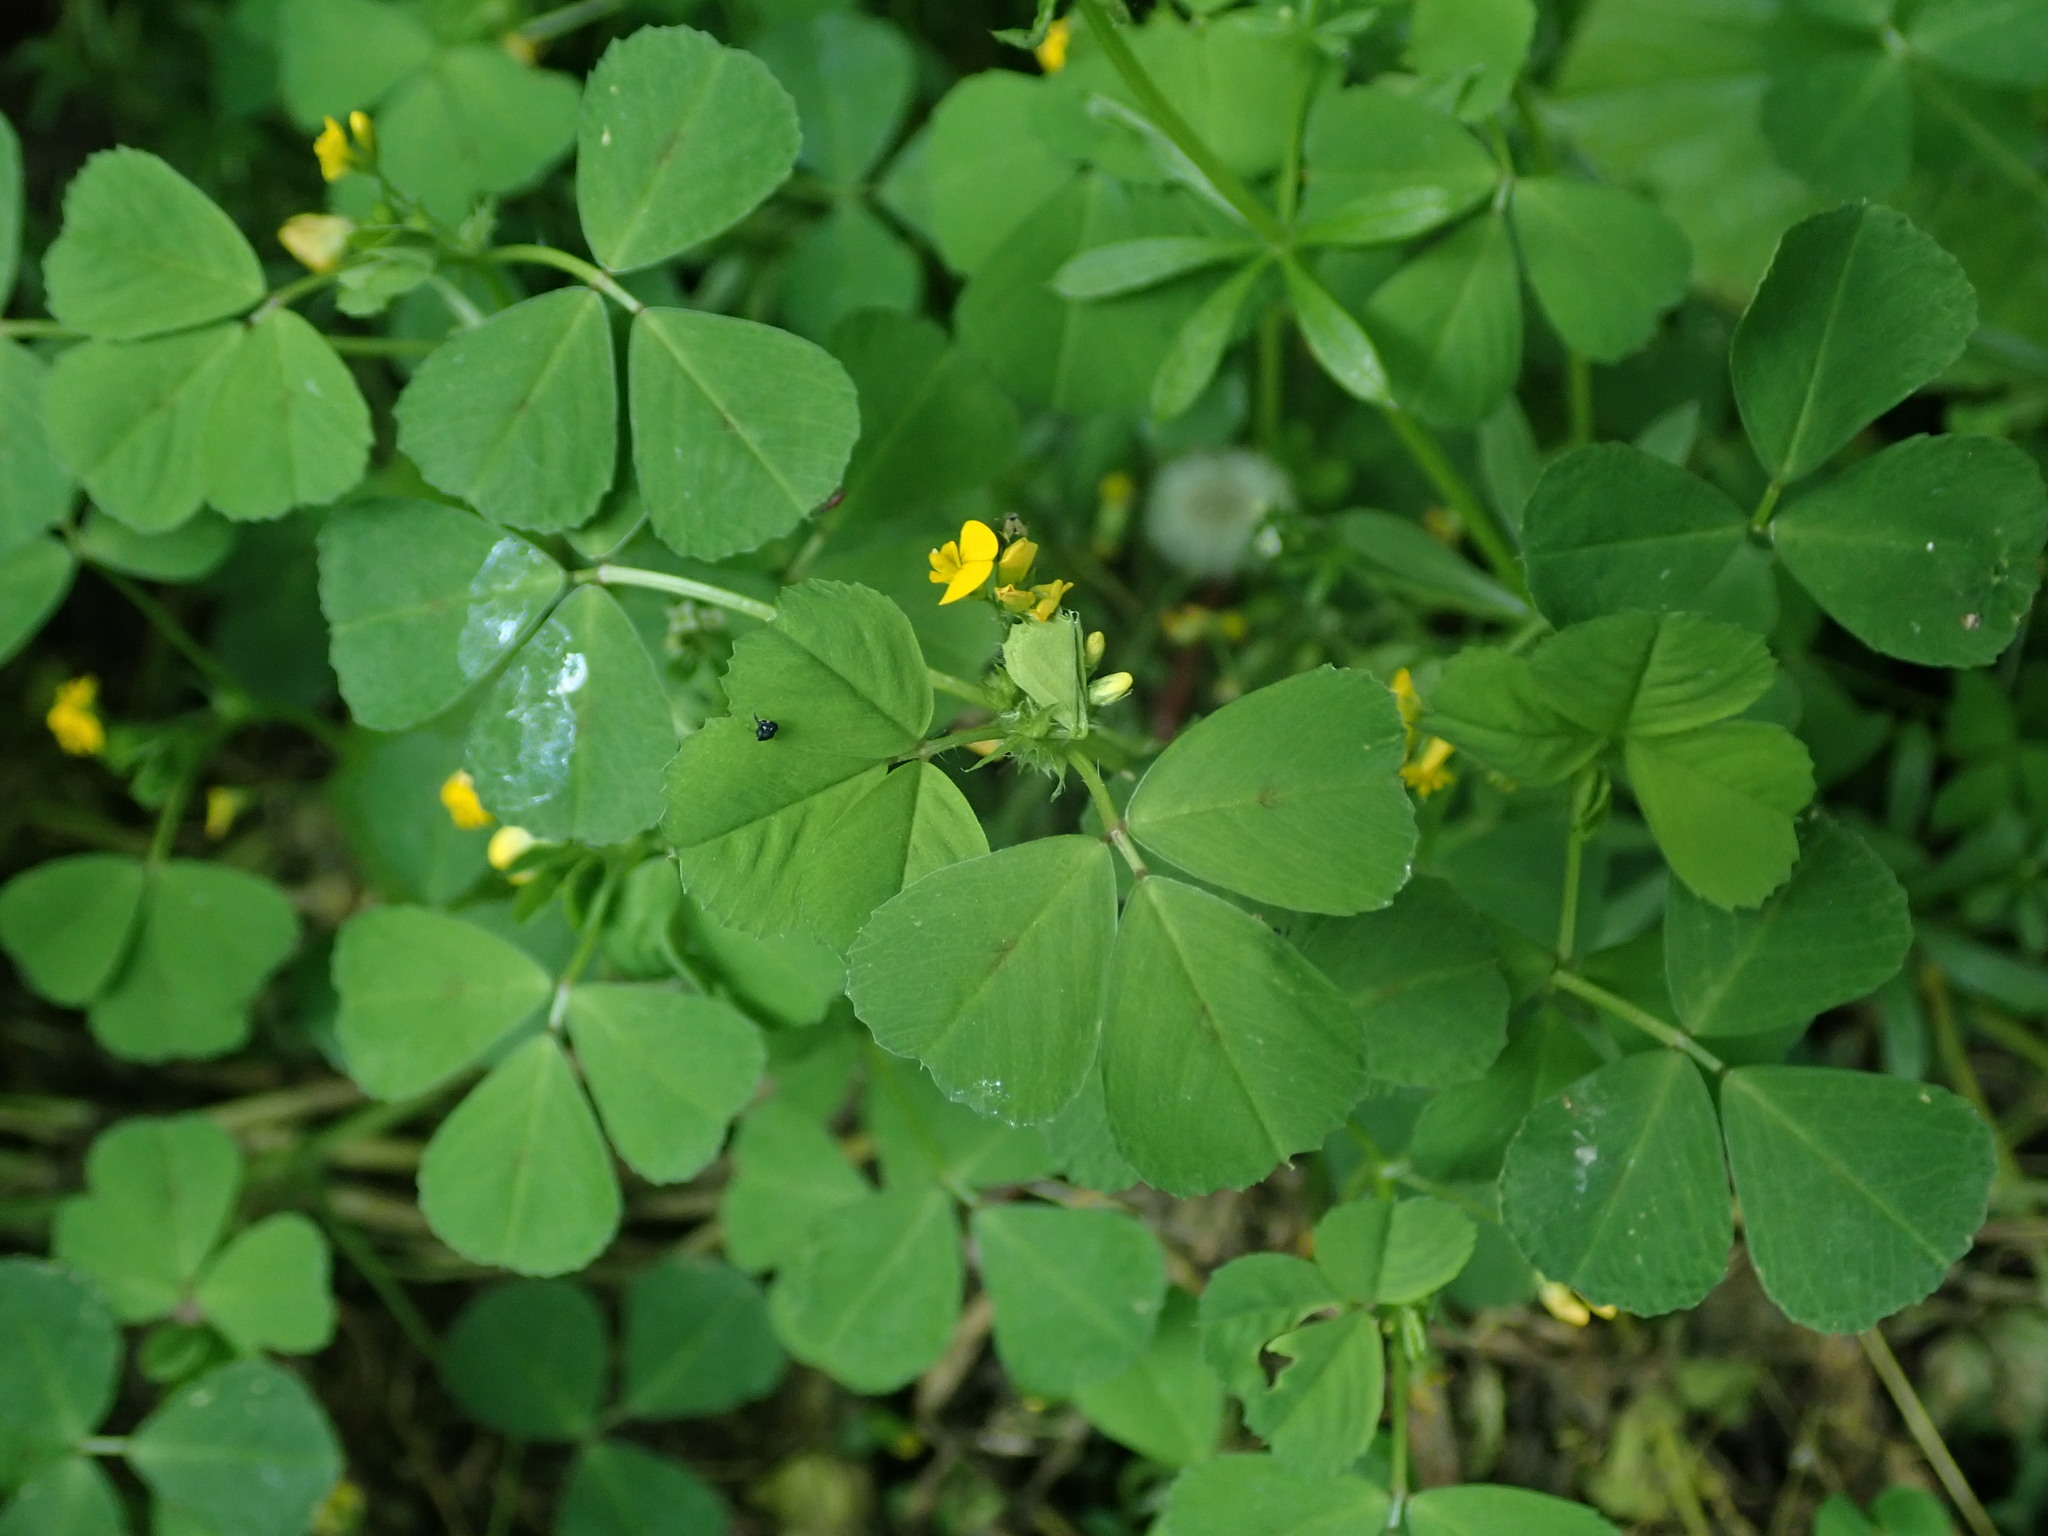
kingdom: Plantae
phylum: Tracheophyta
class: Magnoliopsida
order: Fabales
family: Fabaceae
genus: Medicago
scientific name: Medicago arabica
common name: Spotted medick
